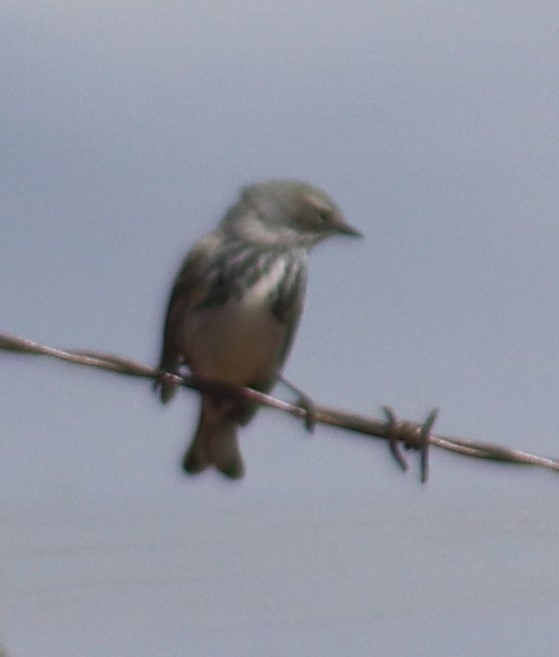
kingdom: Animalia
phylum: Chordata
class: Aves
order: Passeriformes
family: Parulidae
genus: Setophaga
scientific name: Setophaga coronata
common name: Myrtle warbler
